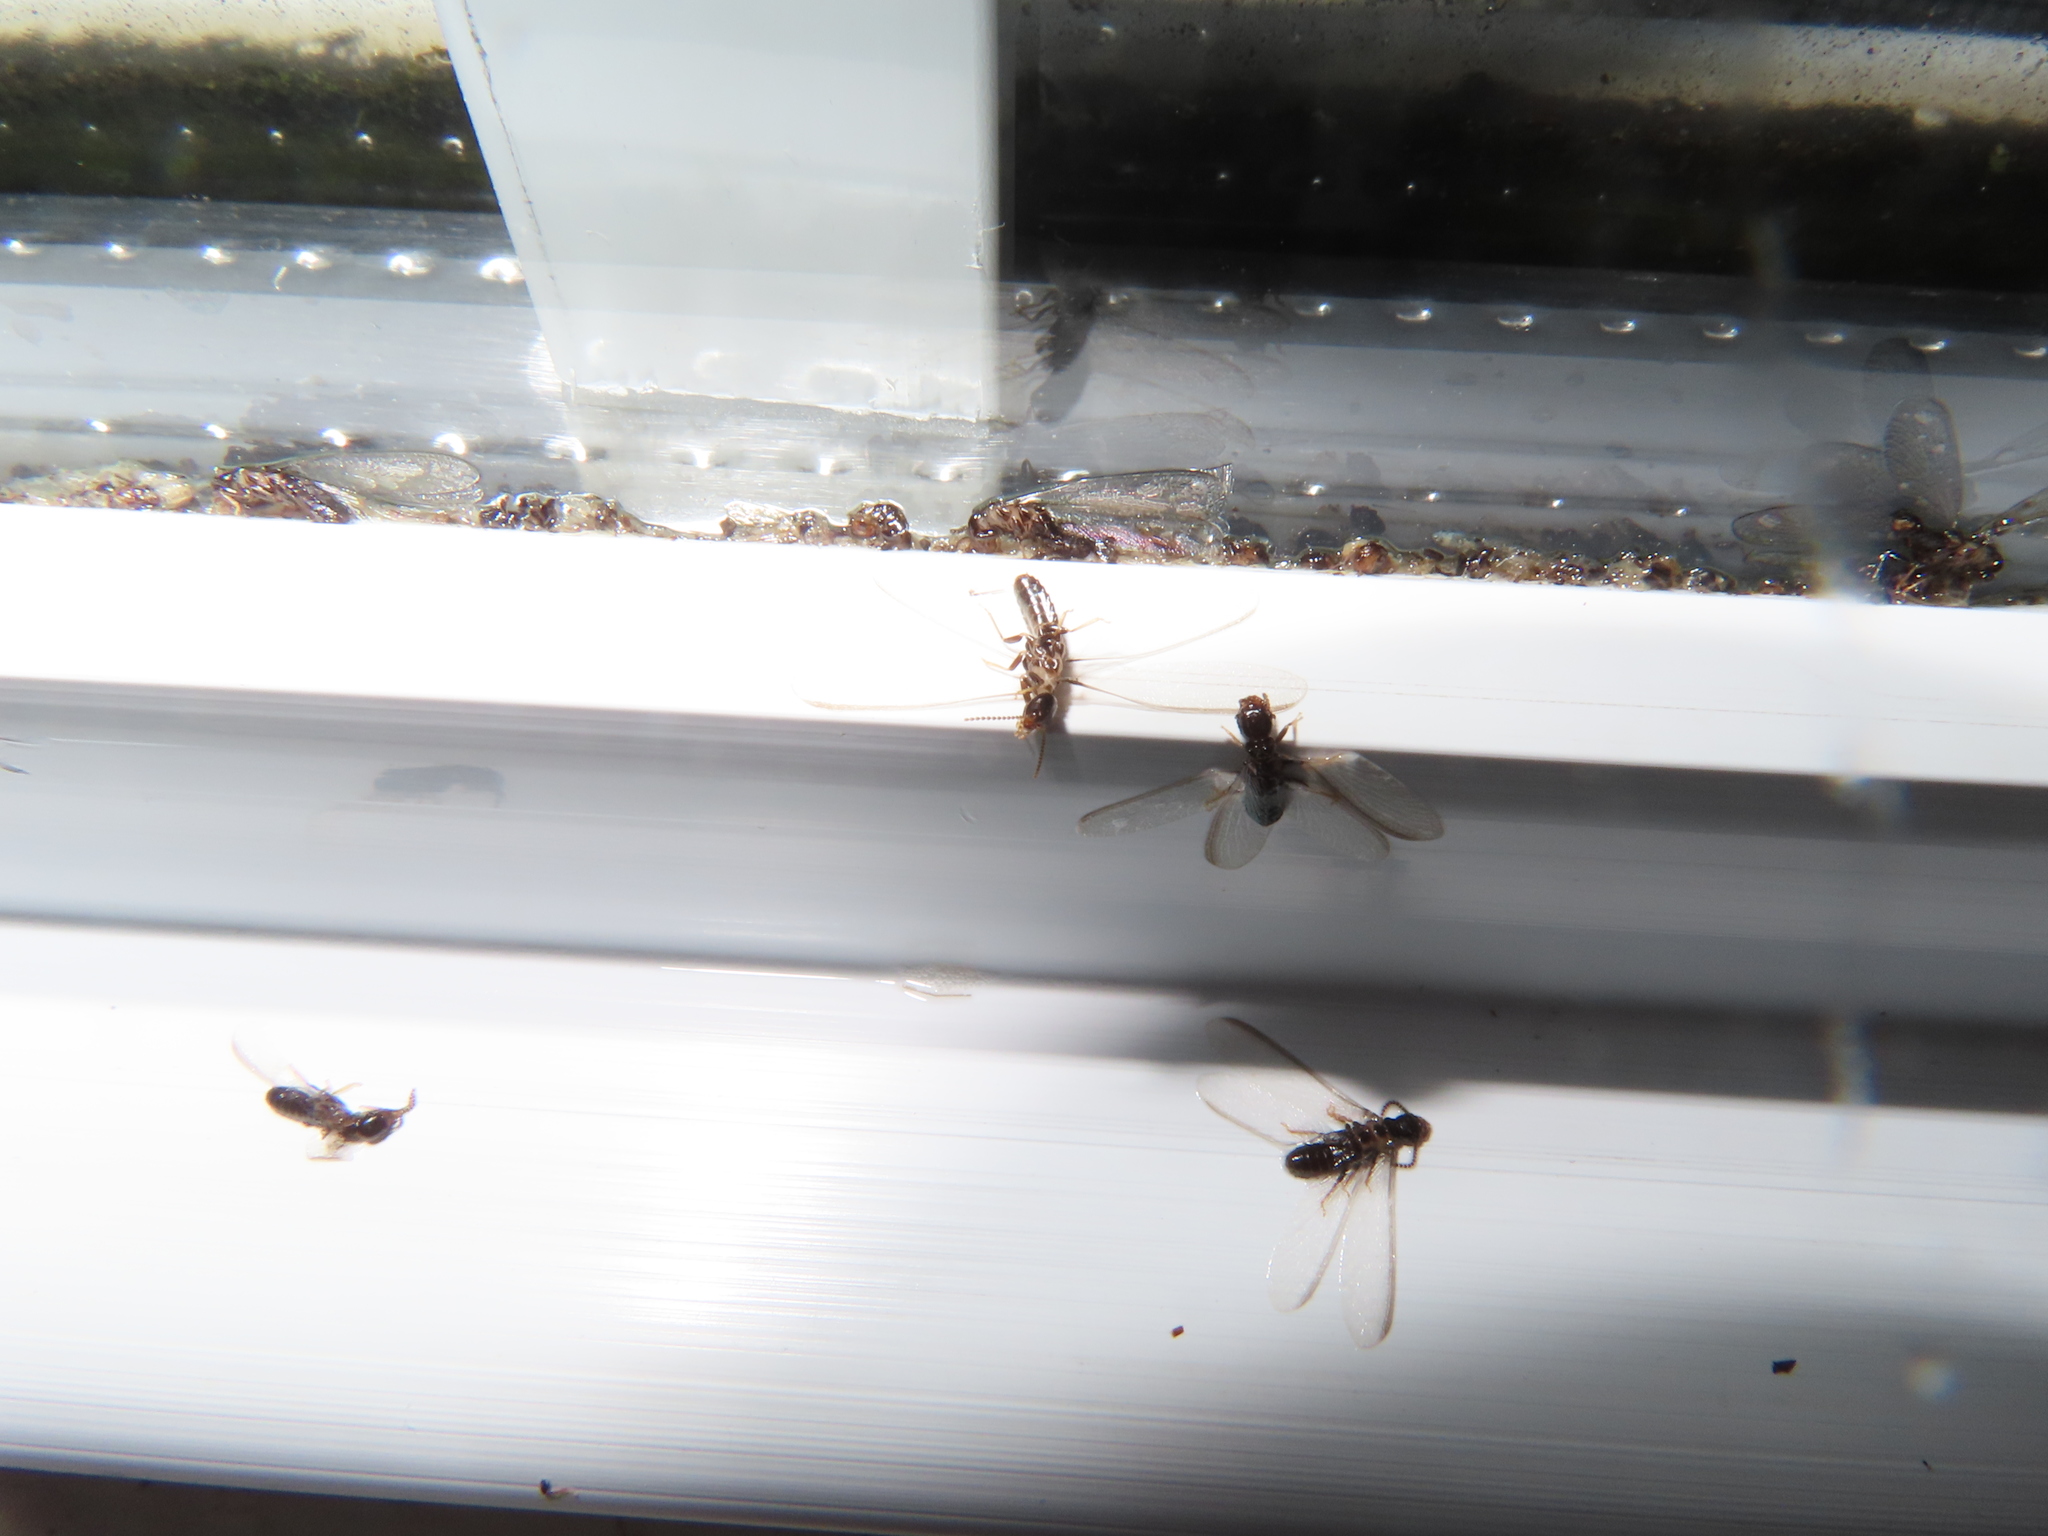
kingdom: Animalia
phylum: Arthropoda
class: Insecta
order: Blattodea
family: Rhinotermitidae
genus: Reticulitermes
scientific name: Reticulitermes flavipes
